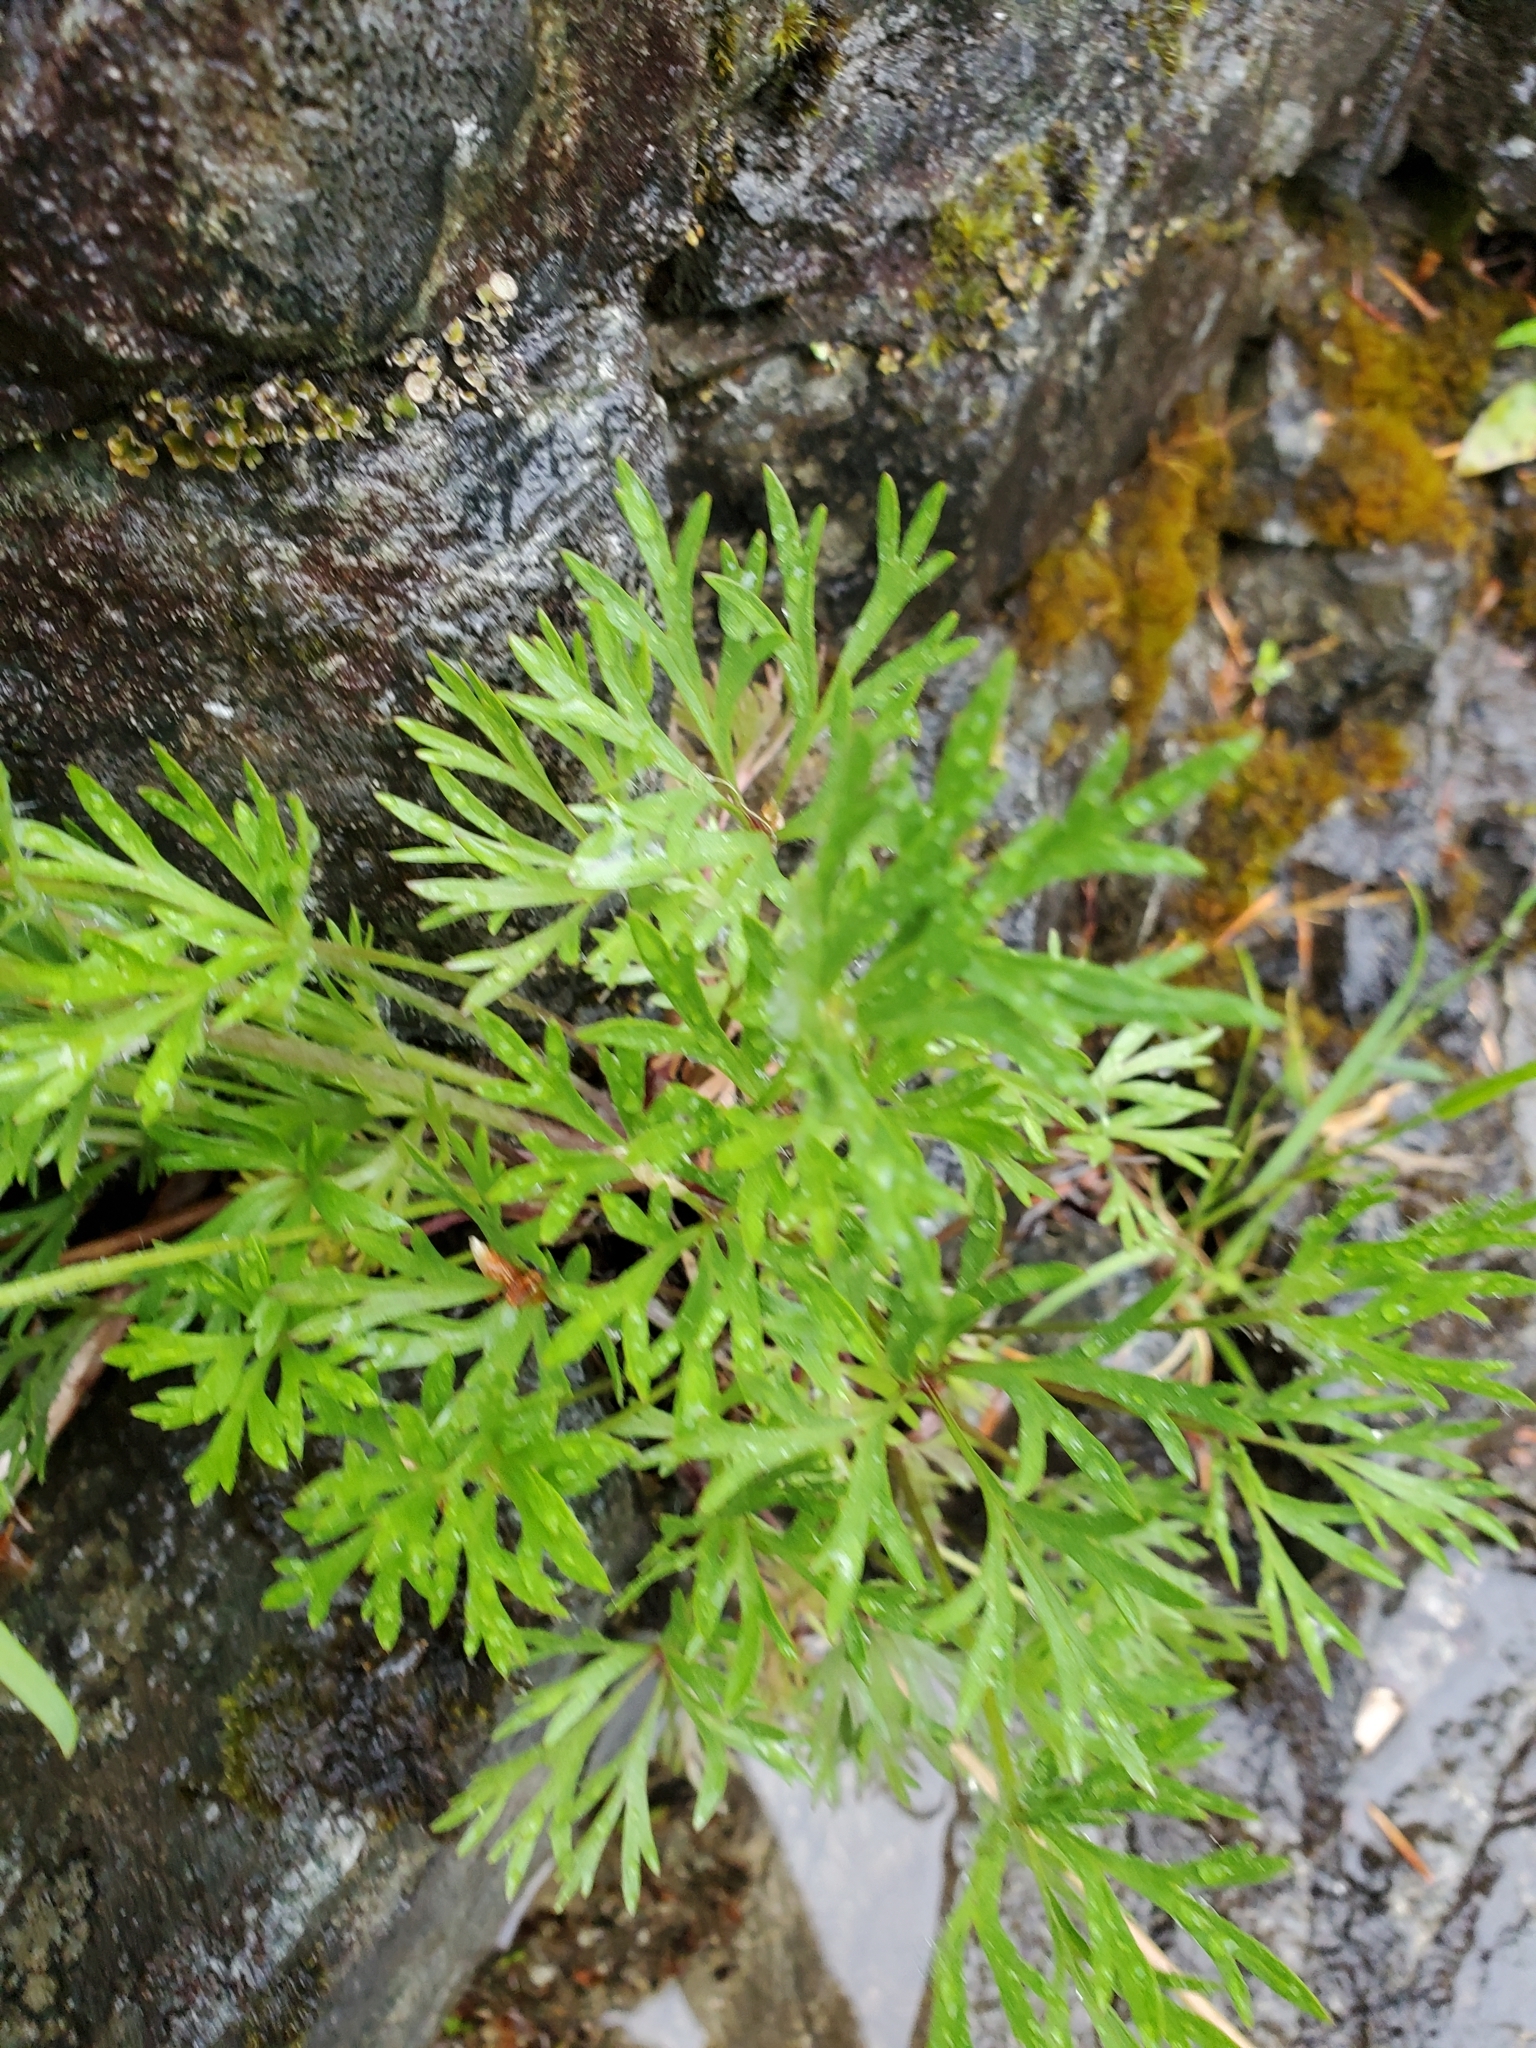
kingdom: Plantae
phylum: Tracheophyta
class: Magnoliopsida
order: Ranunculales
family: Ranunculaceae
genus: Anemone
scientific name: Anemone multifida
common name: Bird's-foot anemone
